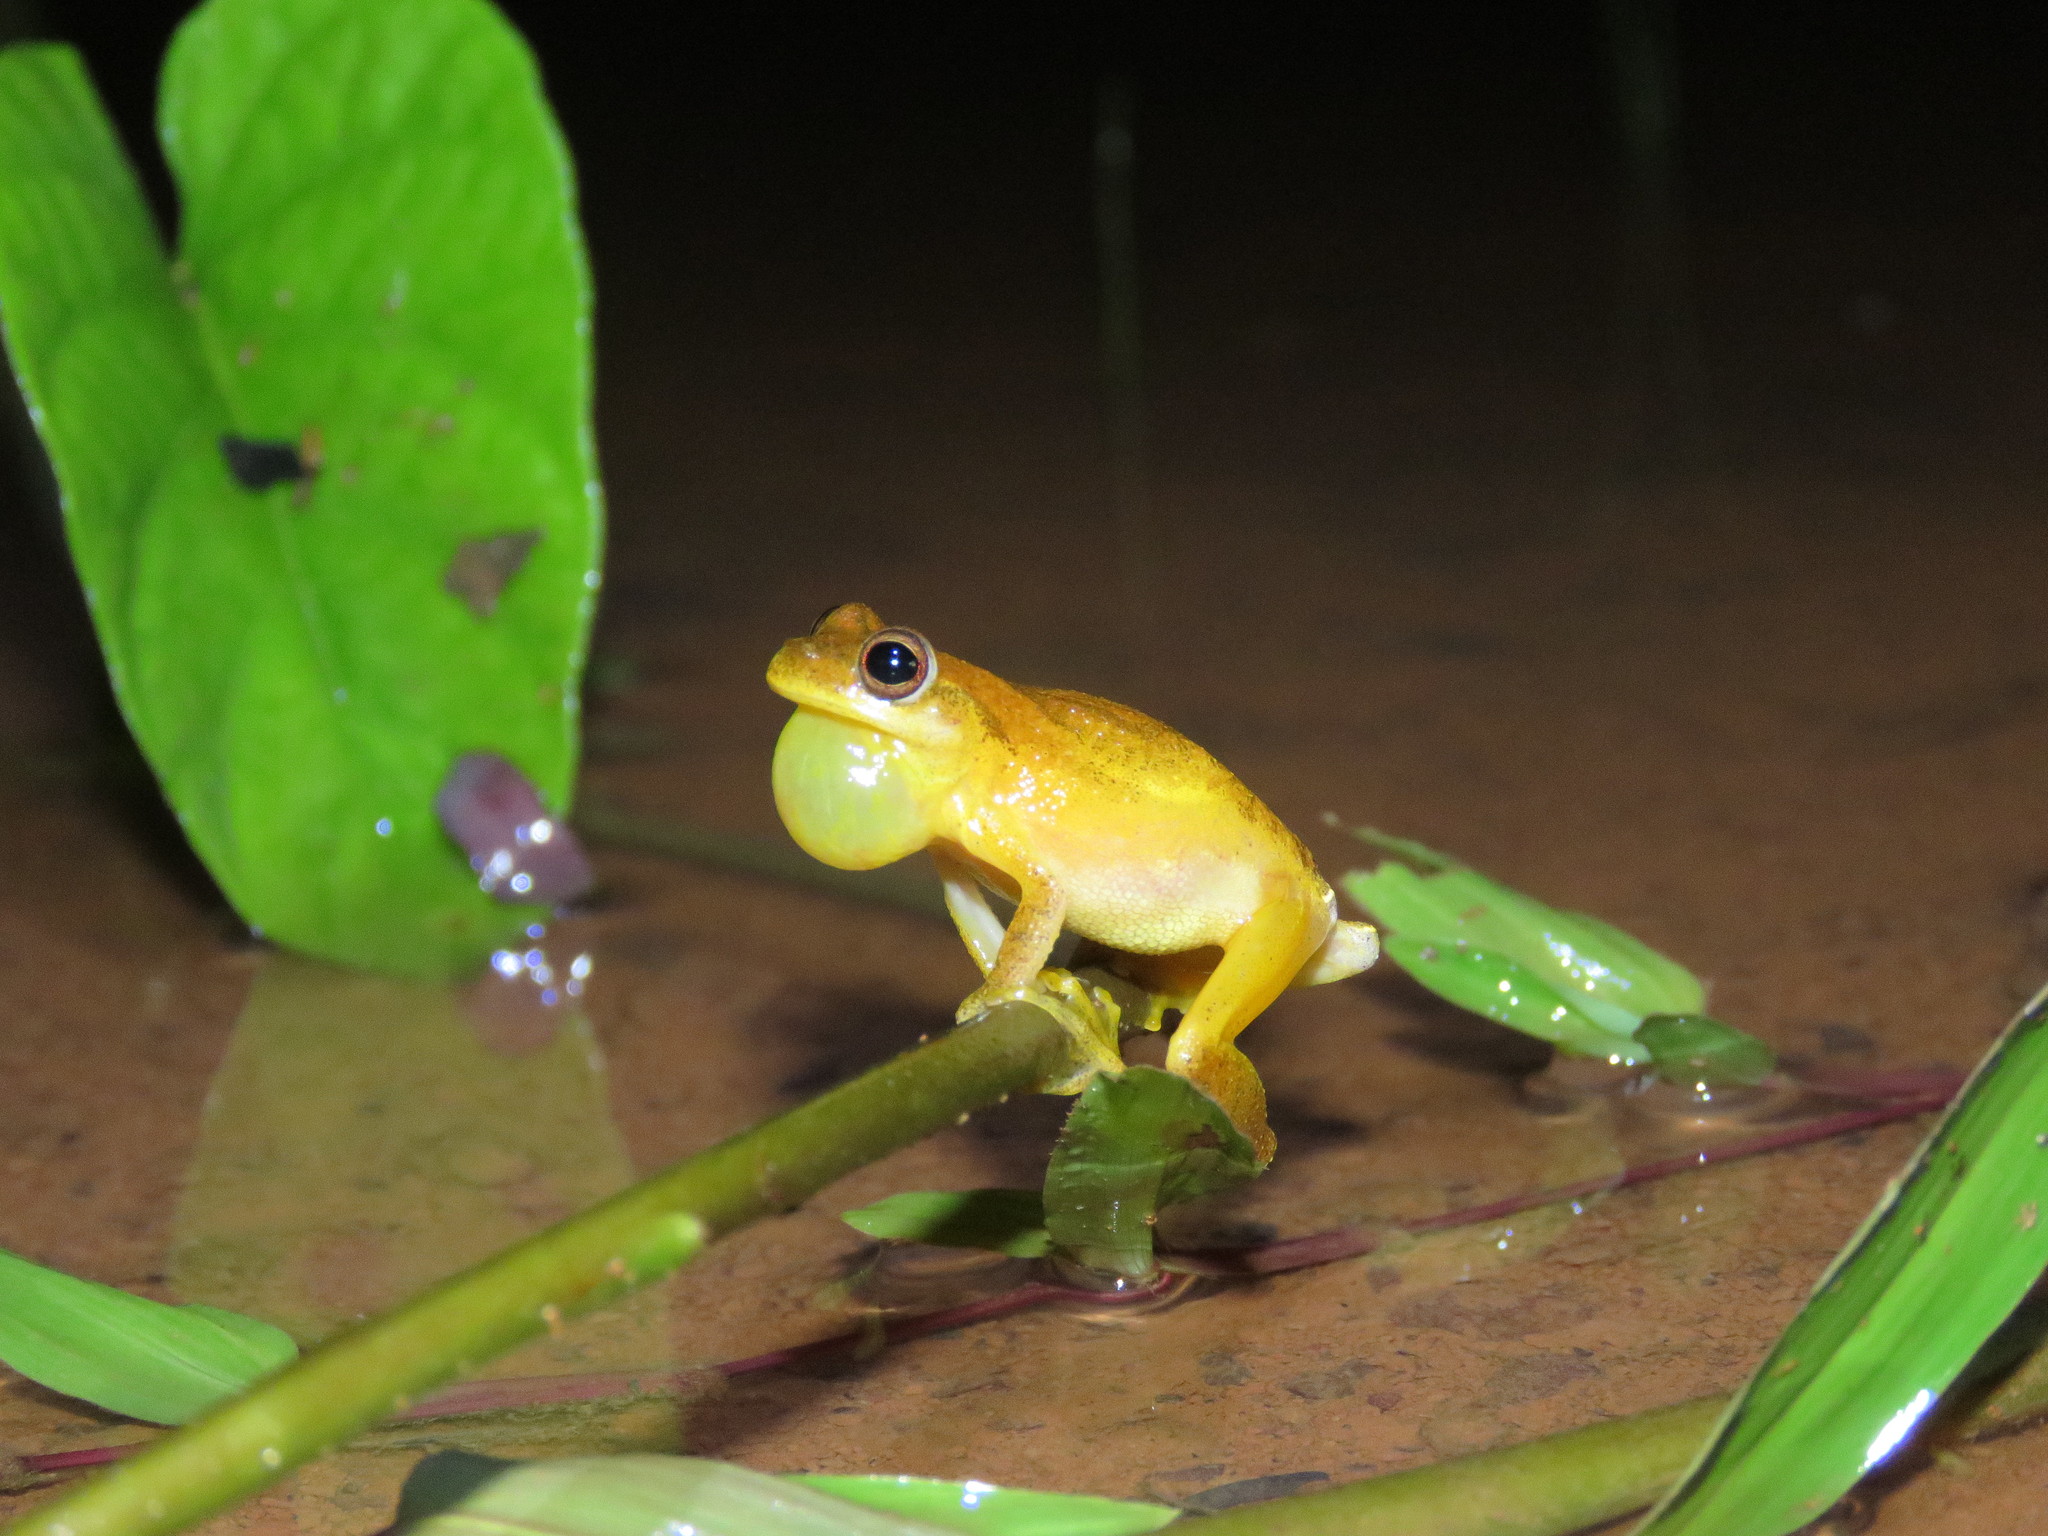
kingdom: Animalia
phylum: Chordata
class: Amphibia
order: Anura
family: Hylidae
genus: Dendropsophus
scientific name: Dendropsophus minutus
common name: Lesser treefrog
